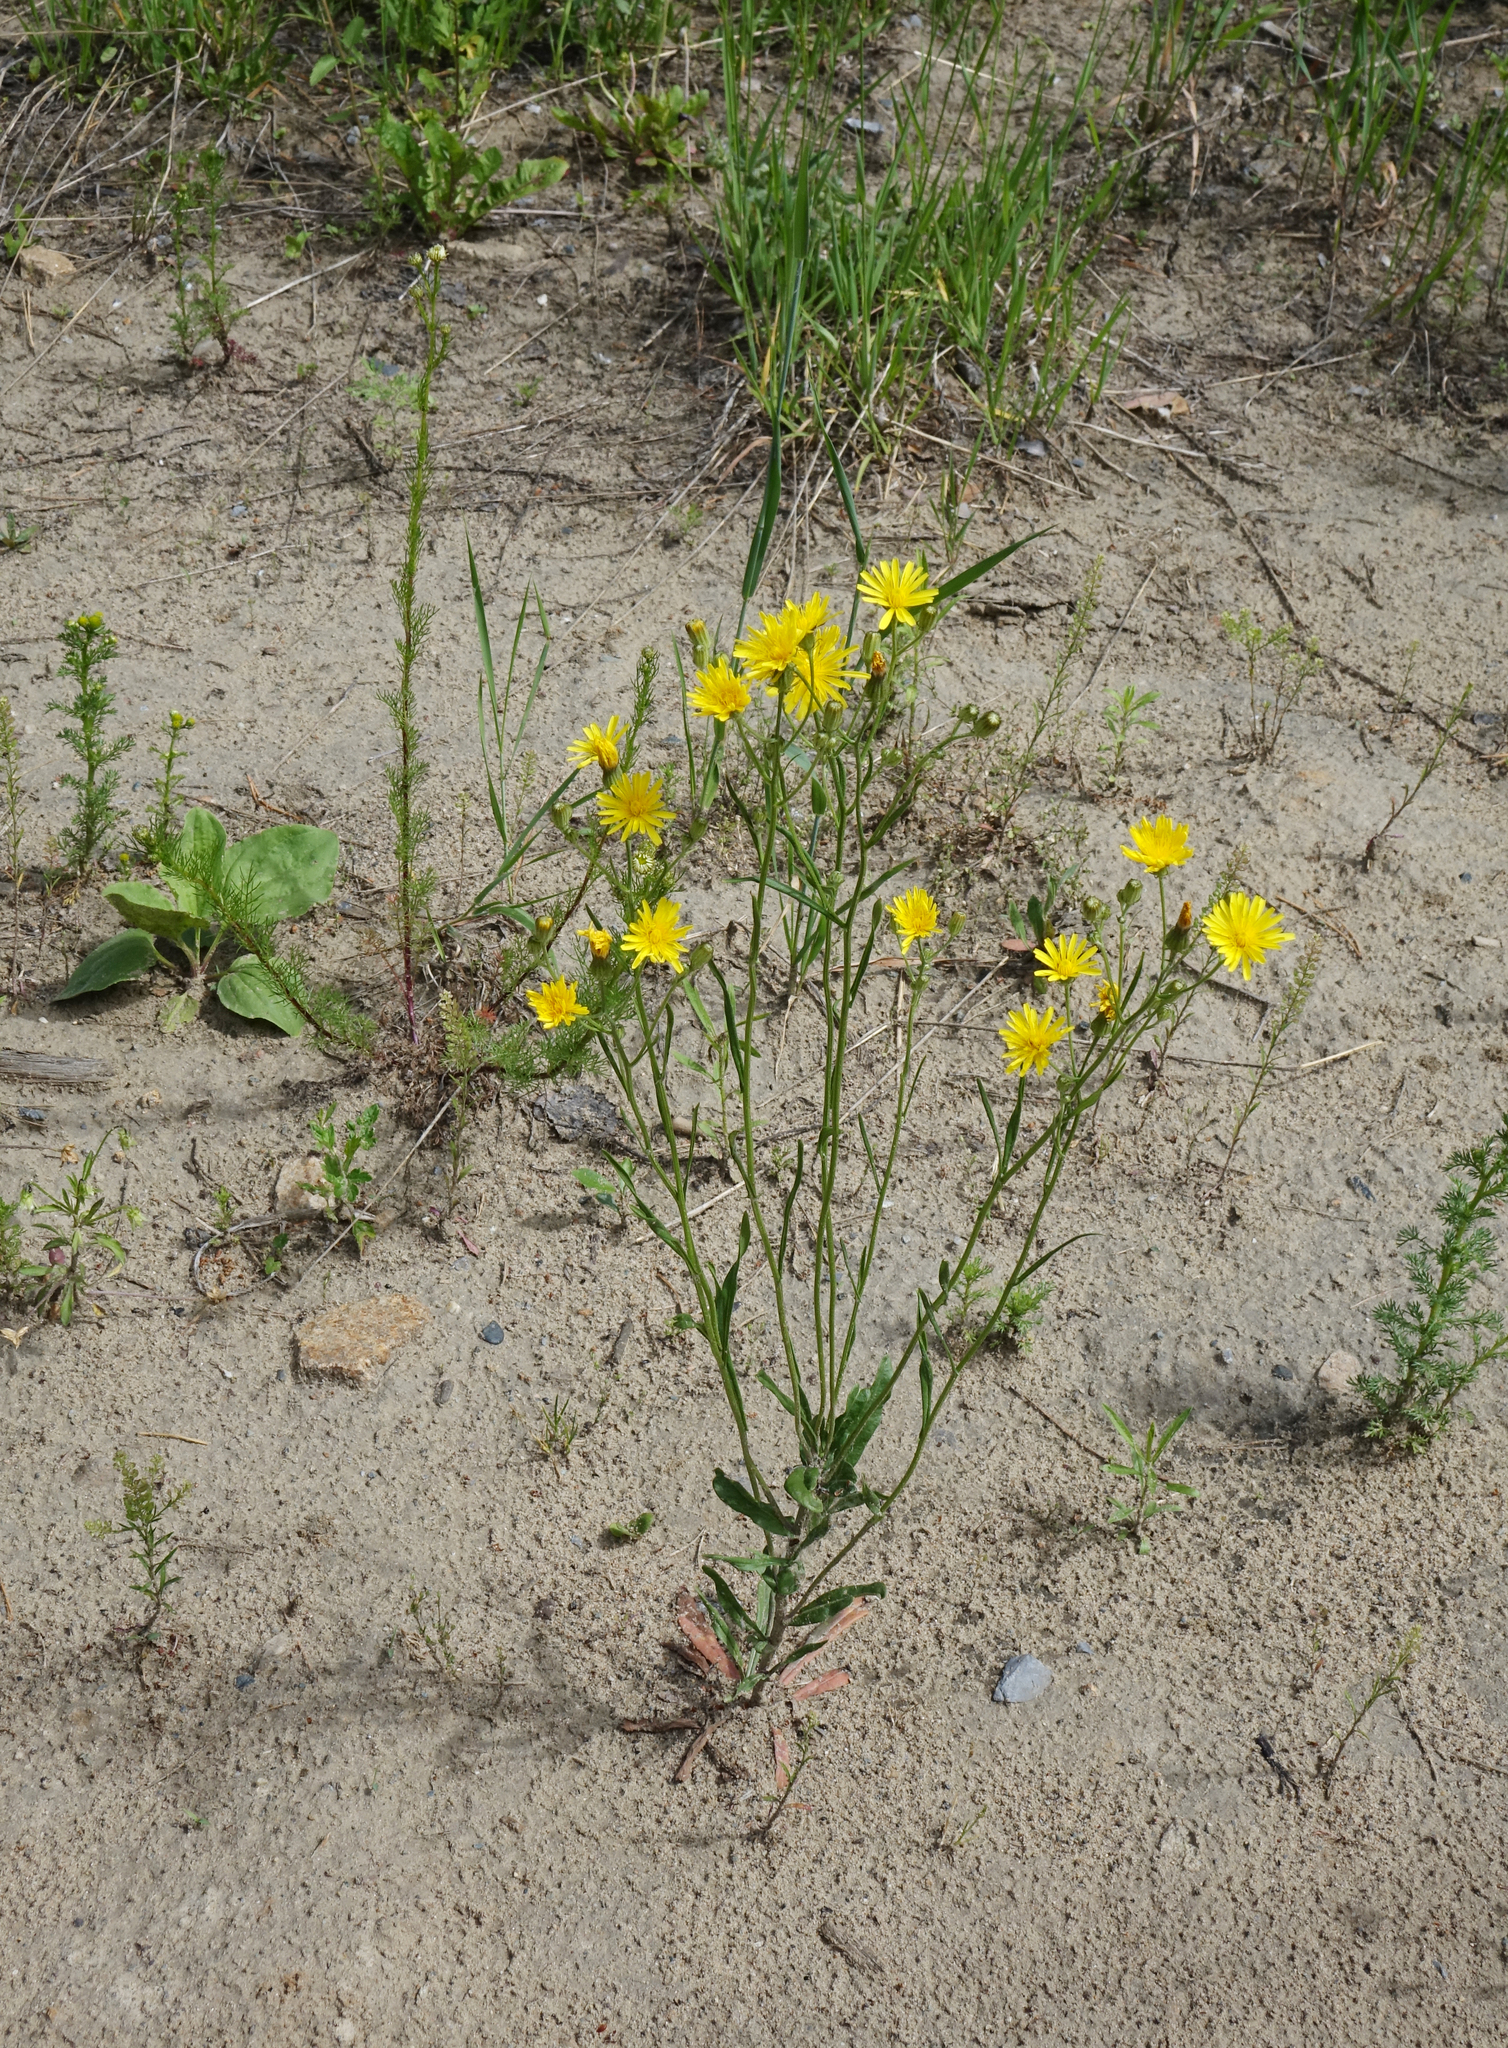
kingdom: Plantae
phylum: Tracheophyta
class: Magnoliopsida
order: Asterales
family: Asteraceae
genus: Crepis
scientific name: Crepis tectorum
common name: Narrow-leaved hawk's-beard
